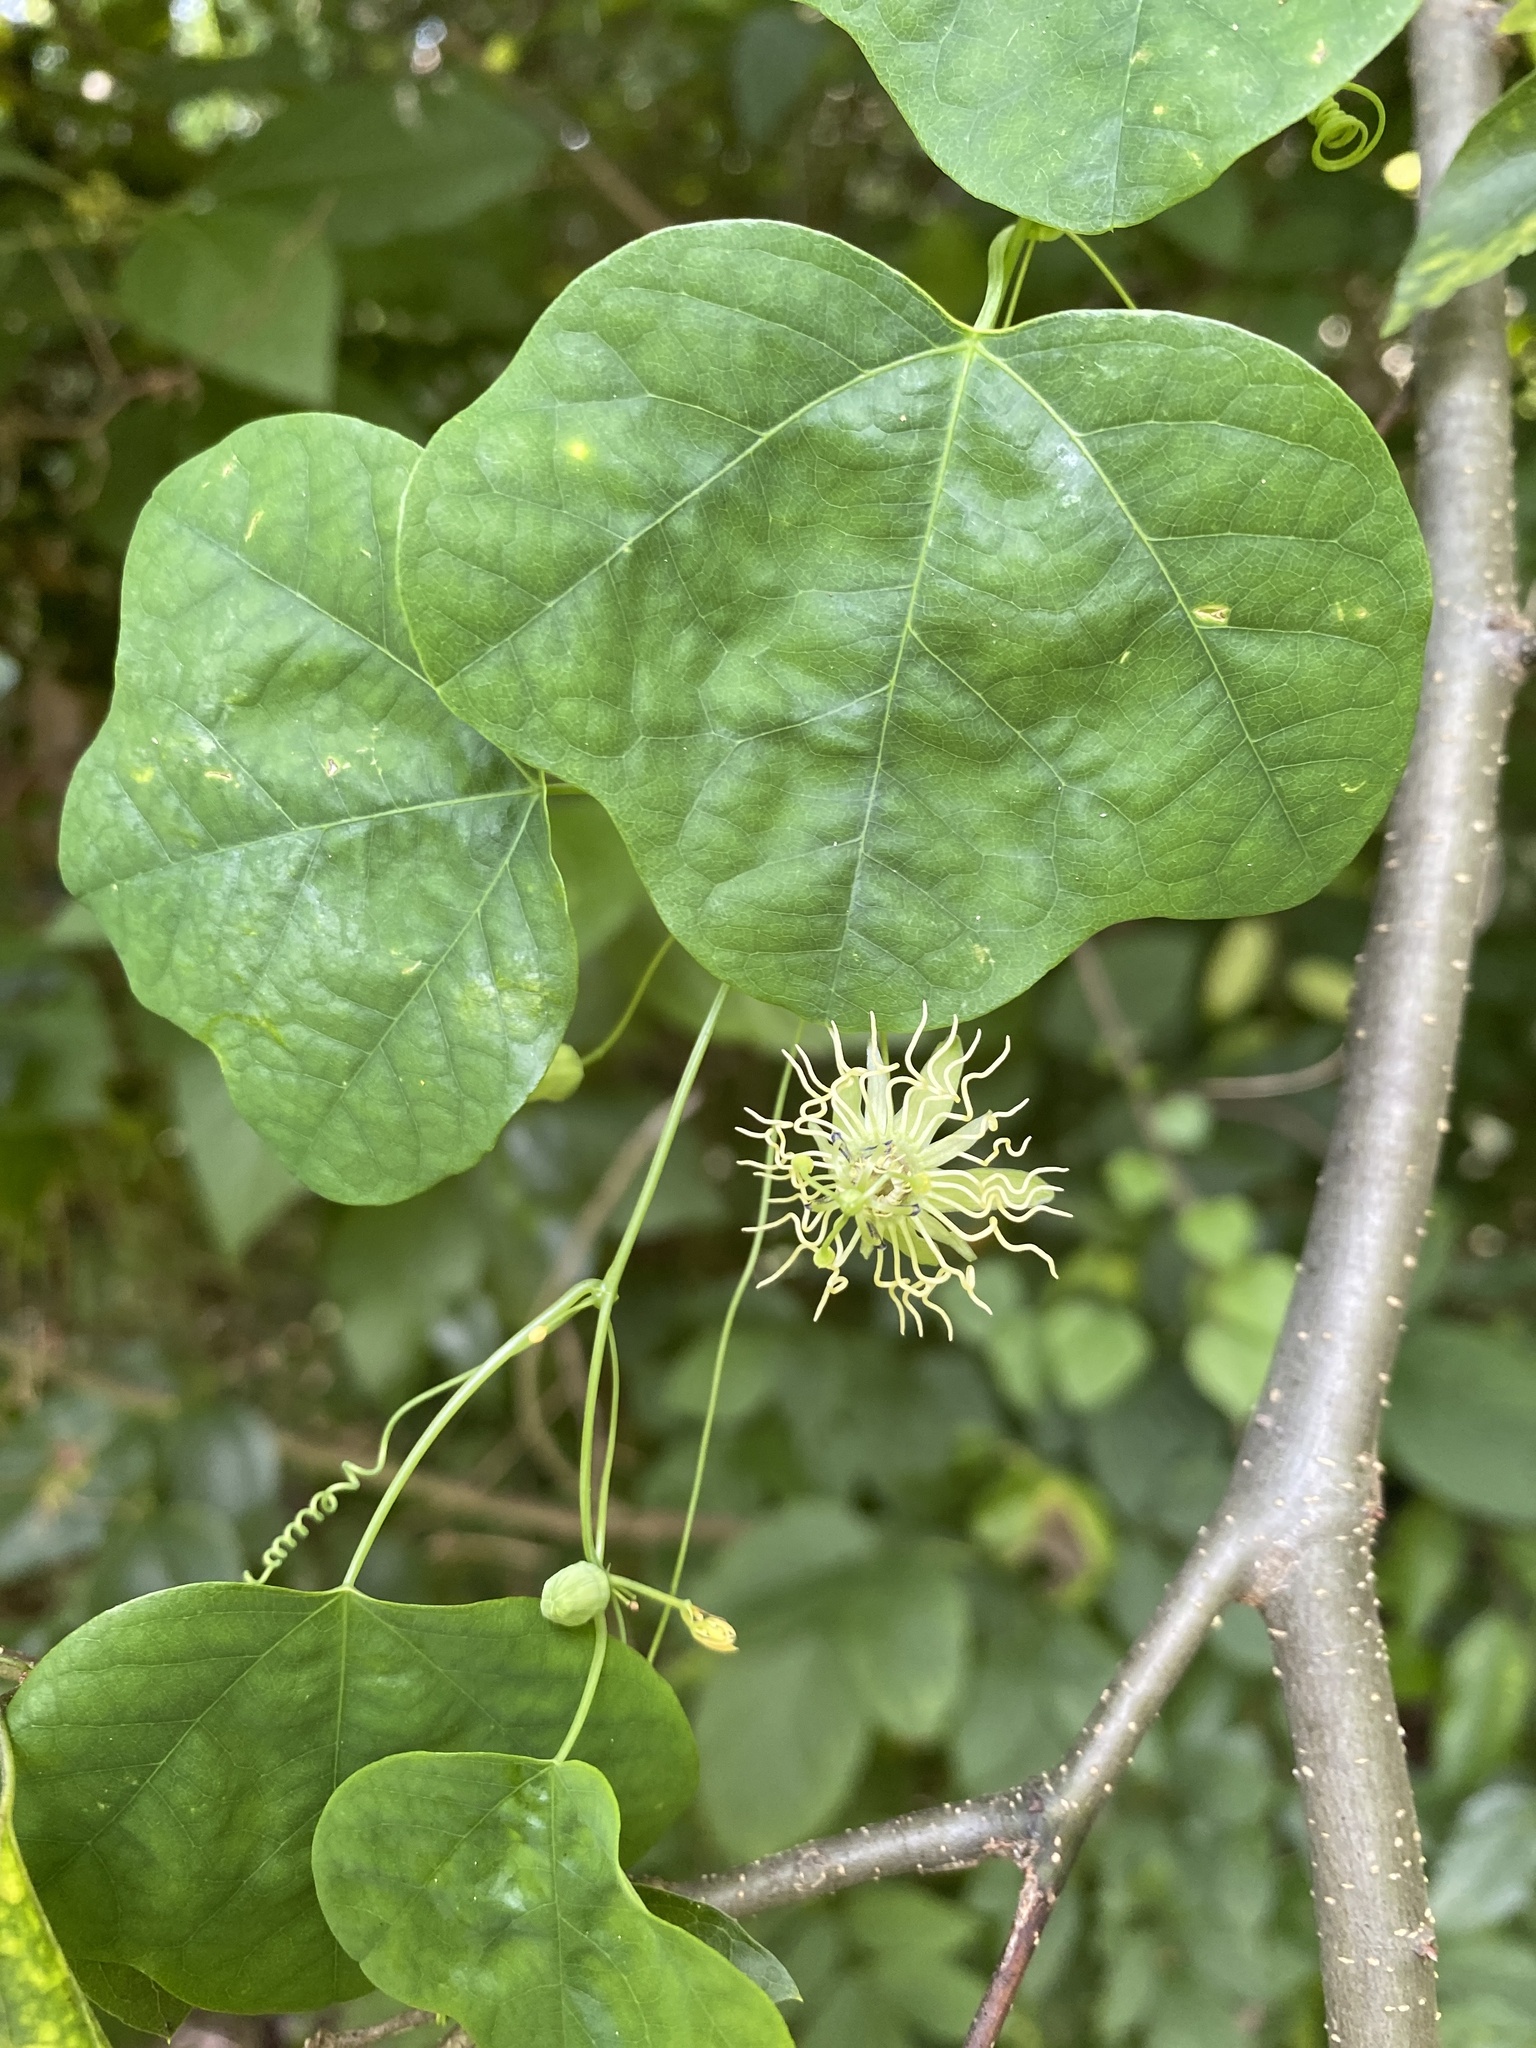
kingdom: Plantae
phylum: Tracheophyta
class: Magnoliopsida
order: Malpighiales
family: Passifloraceae
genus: Passiflora
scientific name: Passiflora lutea
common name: Yellow passionflower
